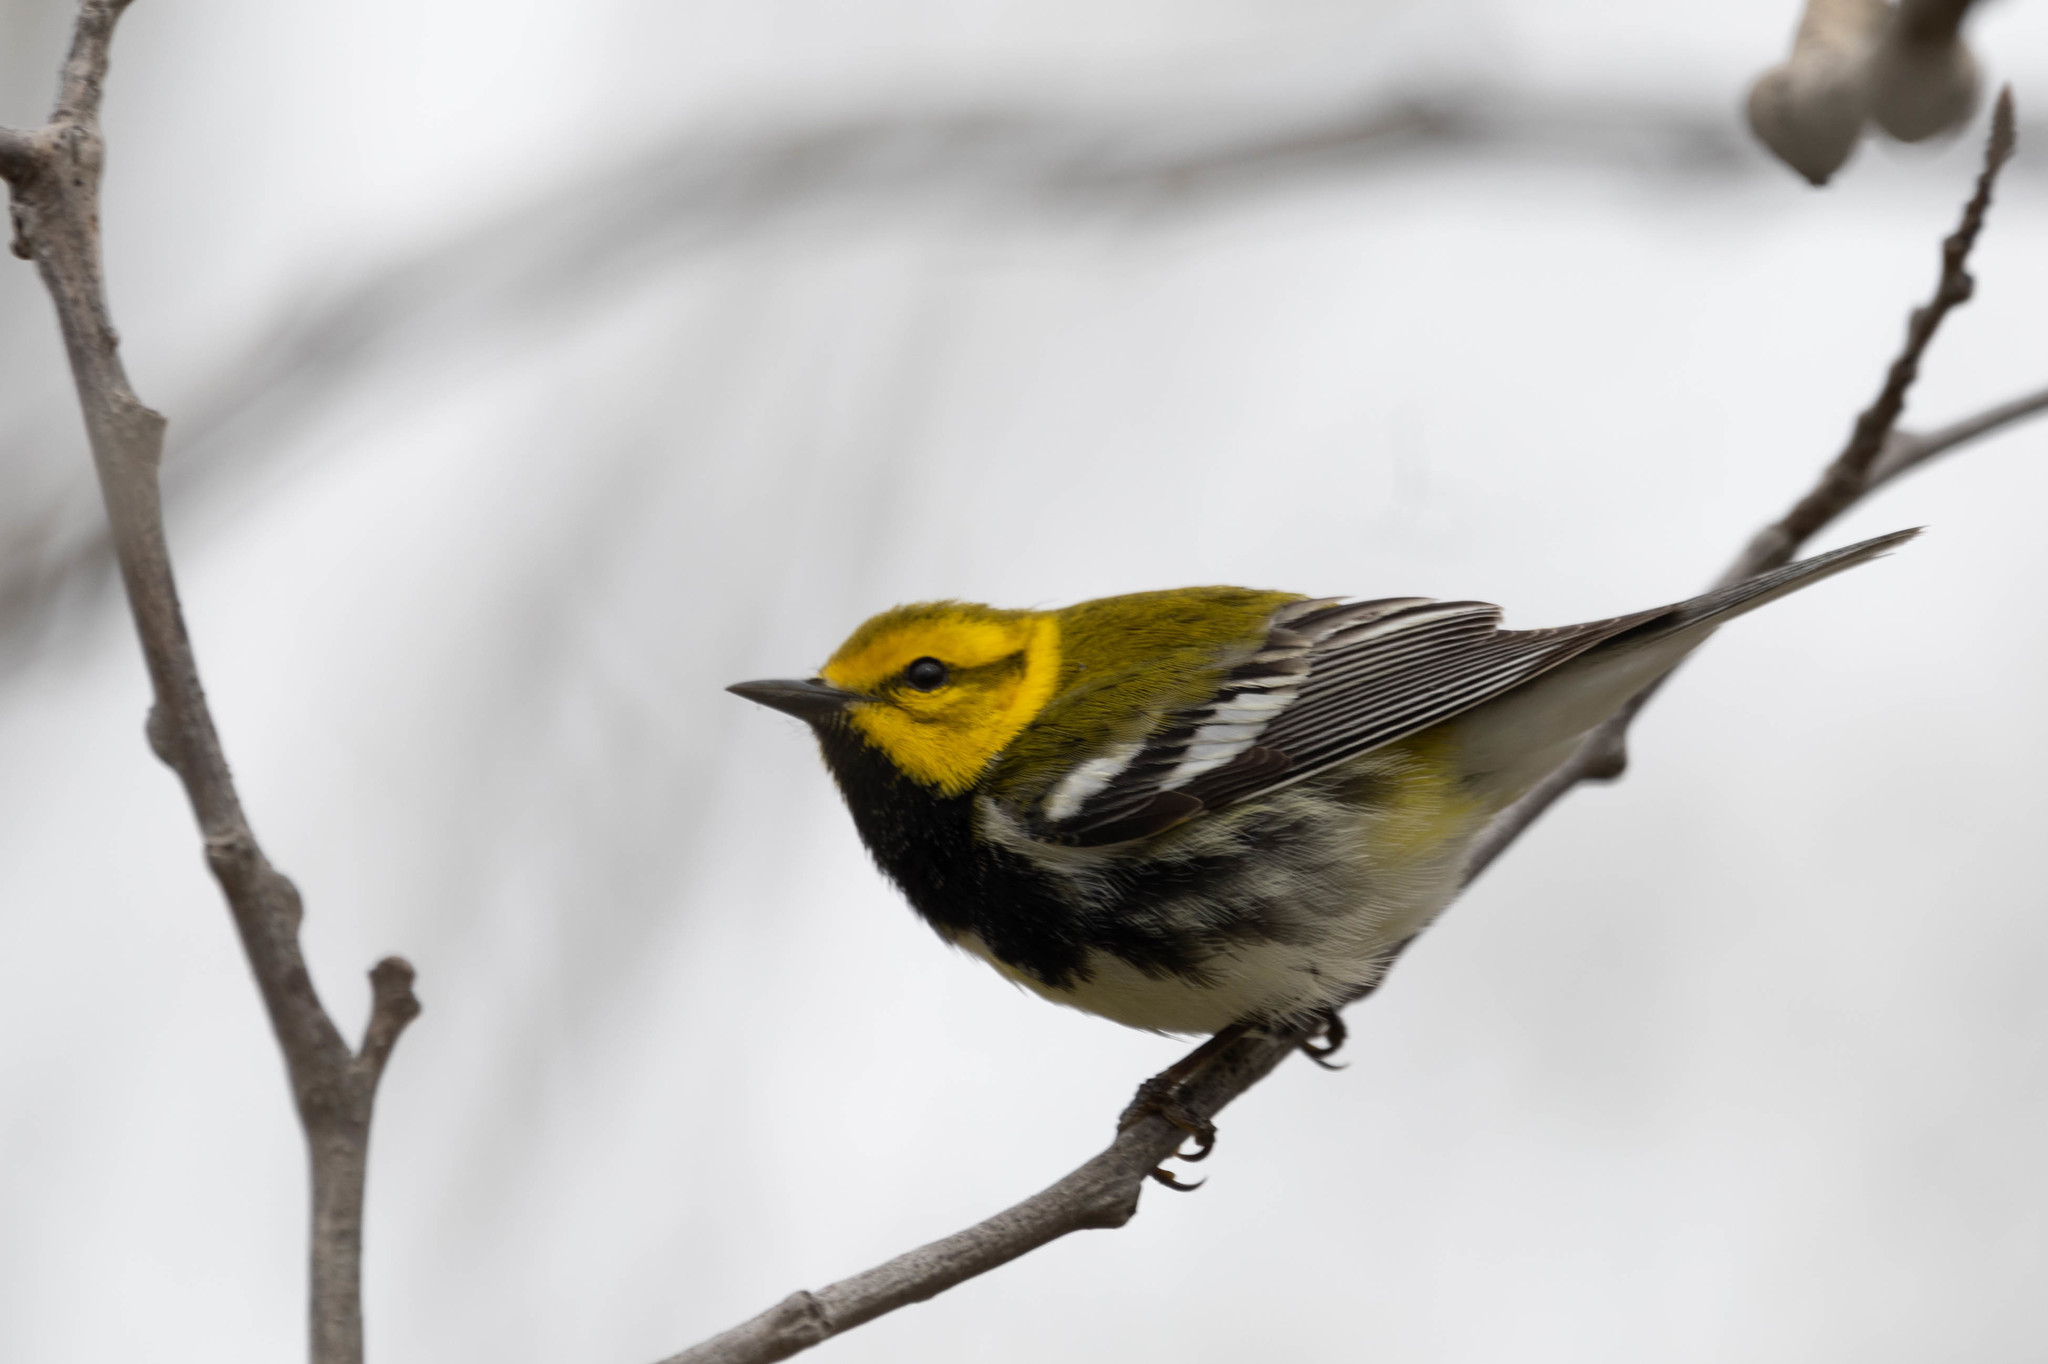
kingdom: Animalia
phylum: Chordata
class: Aves
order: Passeriformes
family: Parulidae
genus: Setophaga
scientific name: Setophaga virens
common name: Black-throated green warbler
